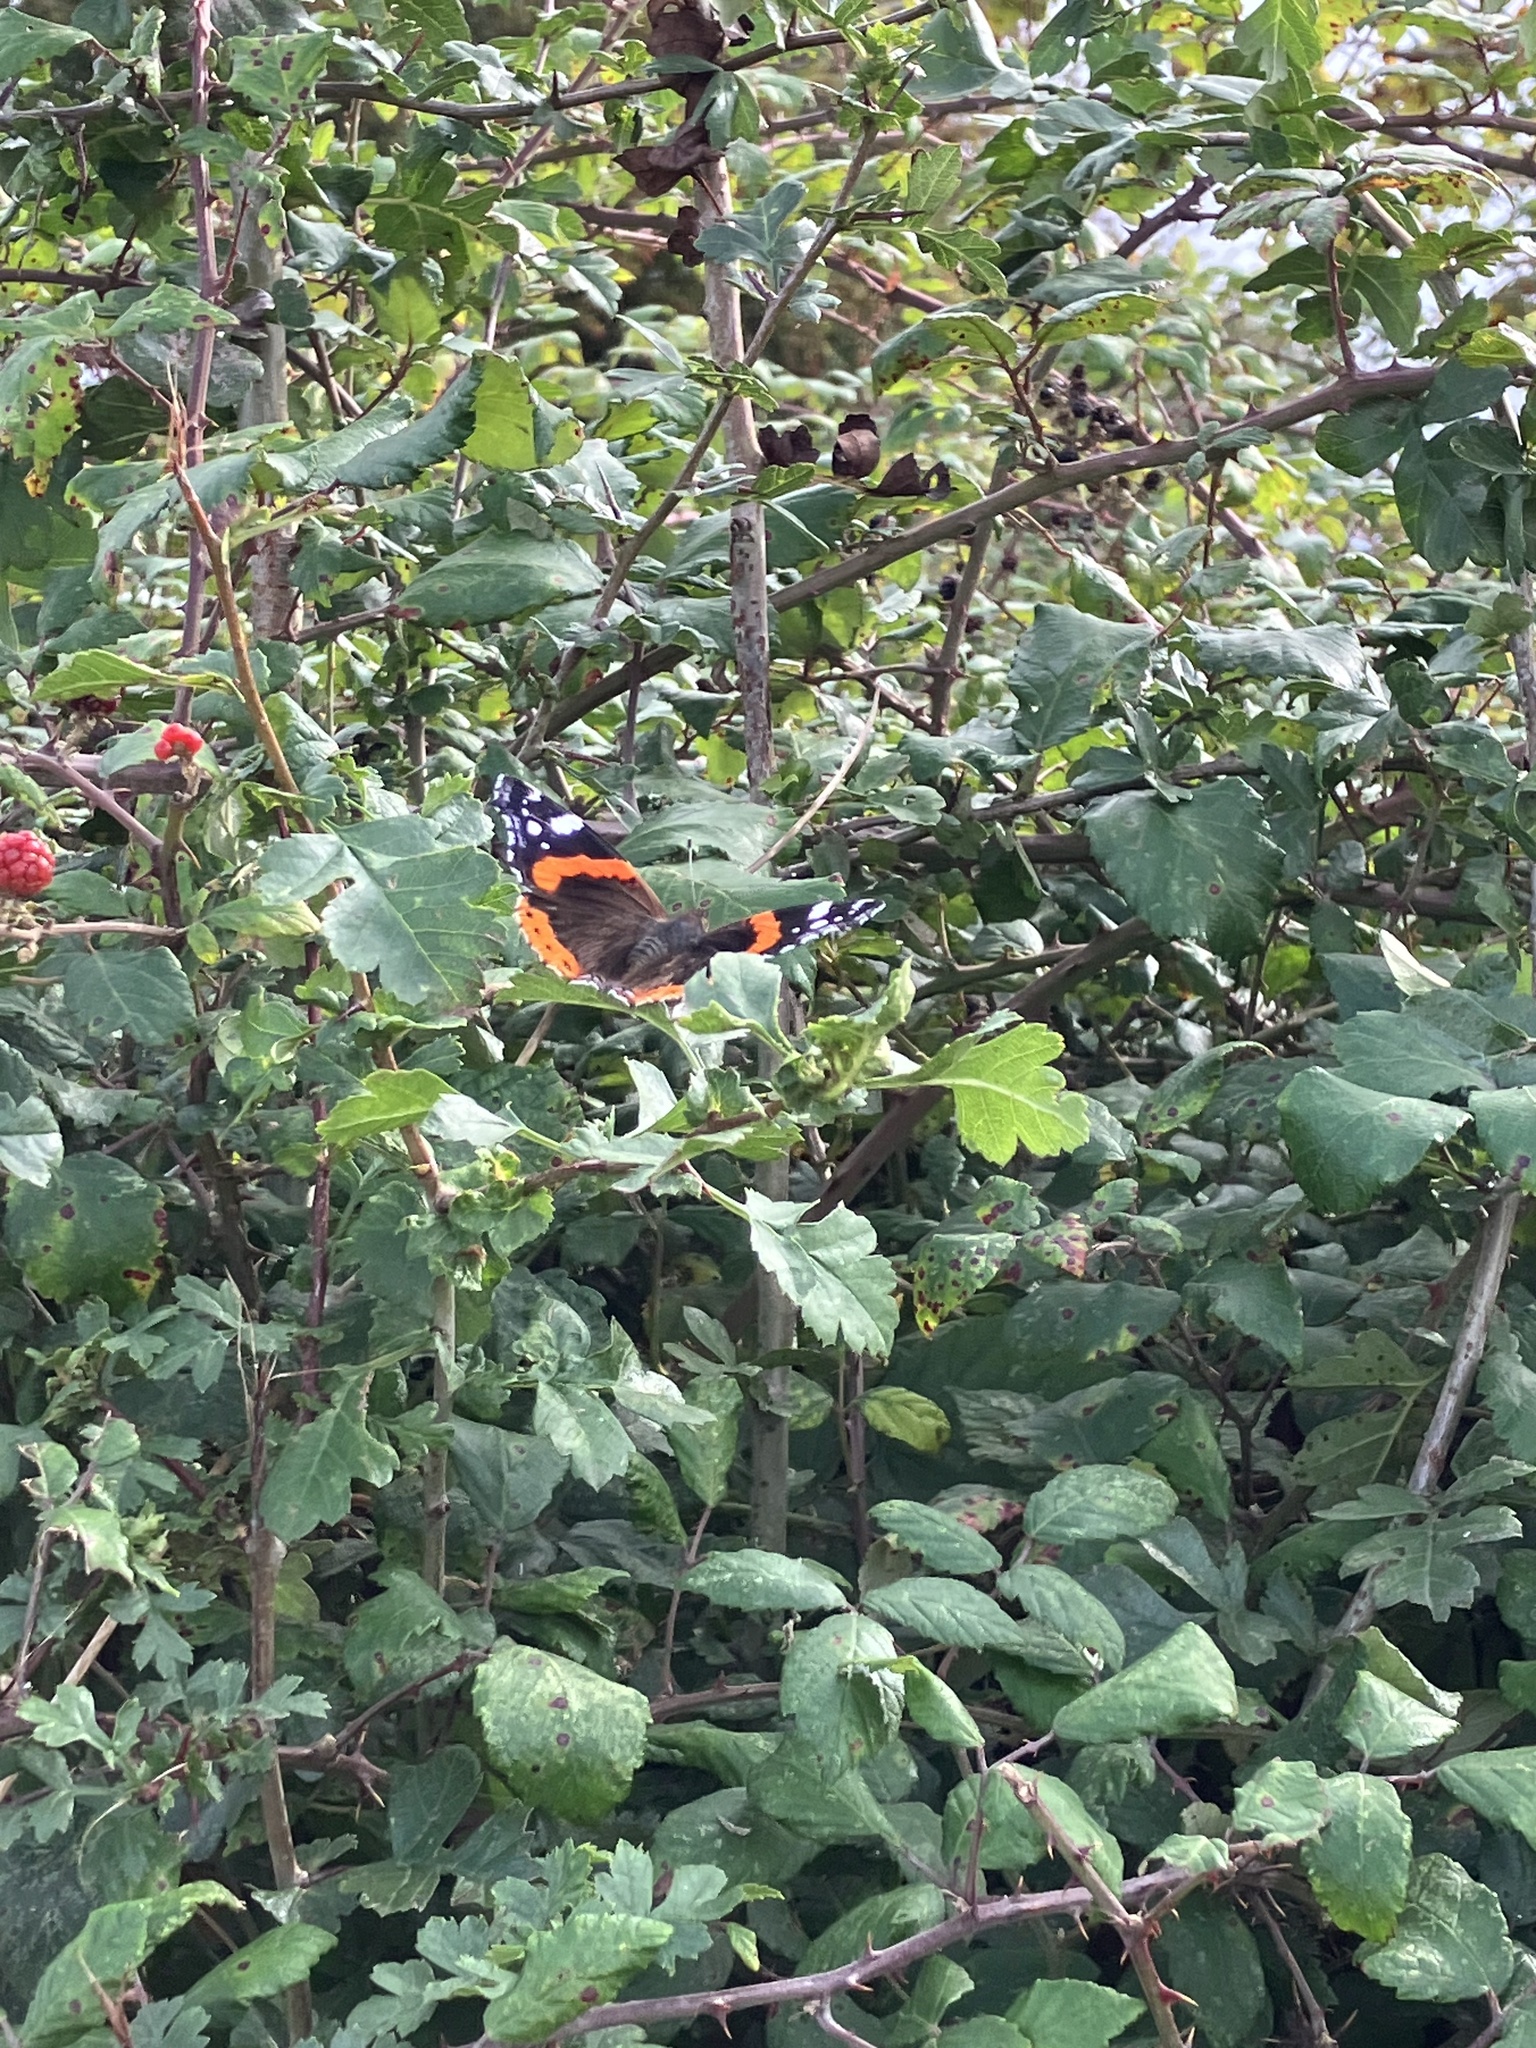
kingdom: Animalia
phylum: Arthropoda
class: Insecta
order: Lepidoptera
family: Nymphalidae
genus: Vanessa
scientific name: Vanessa atalanta
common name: Red admiral
